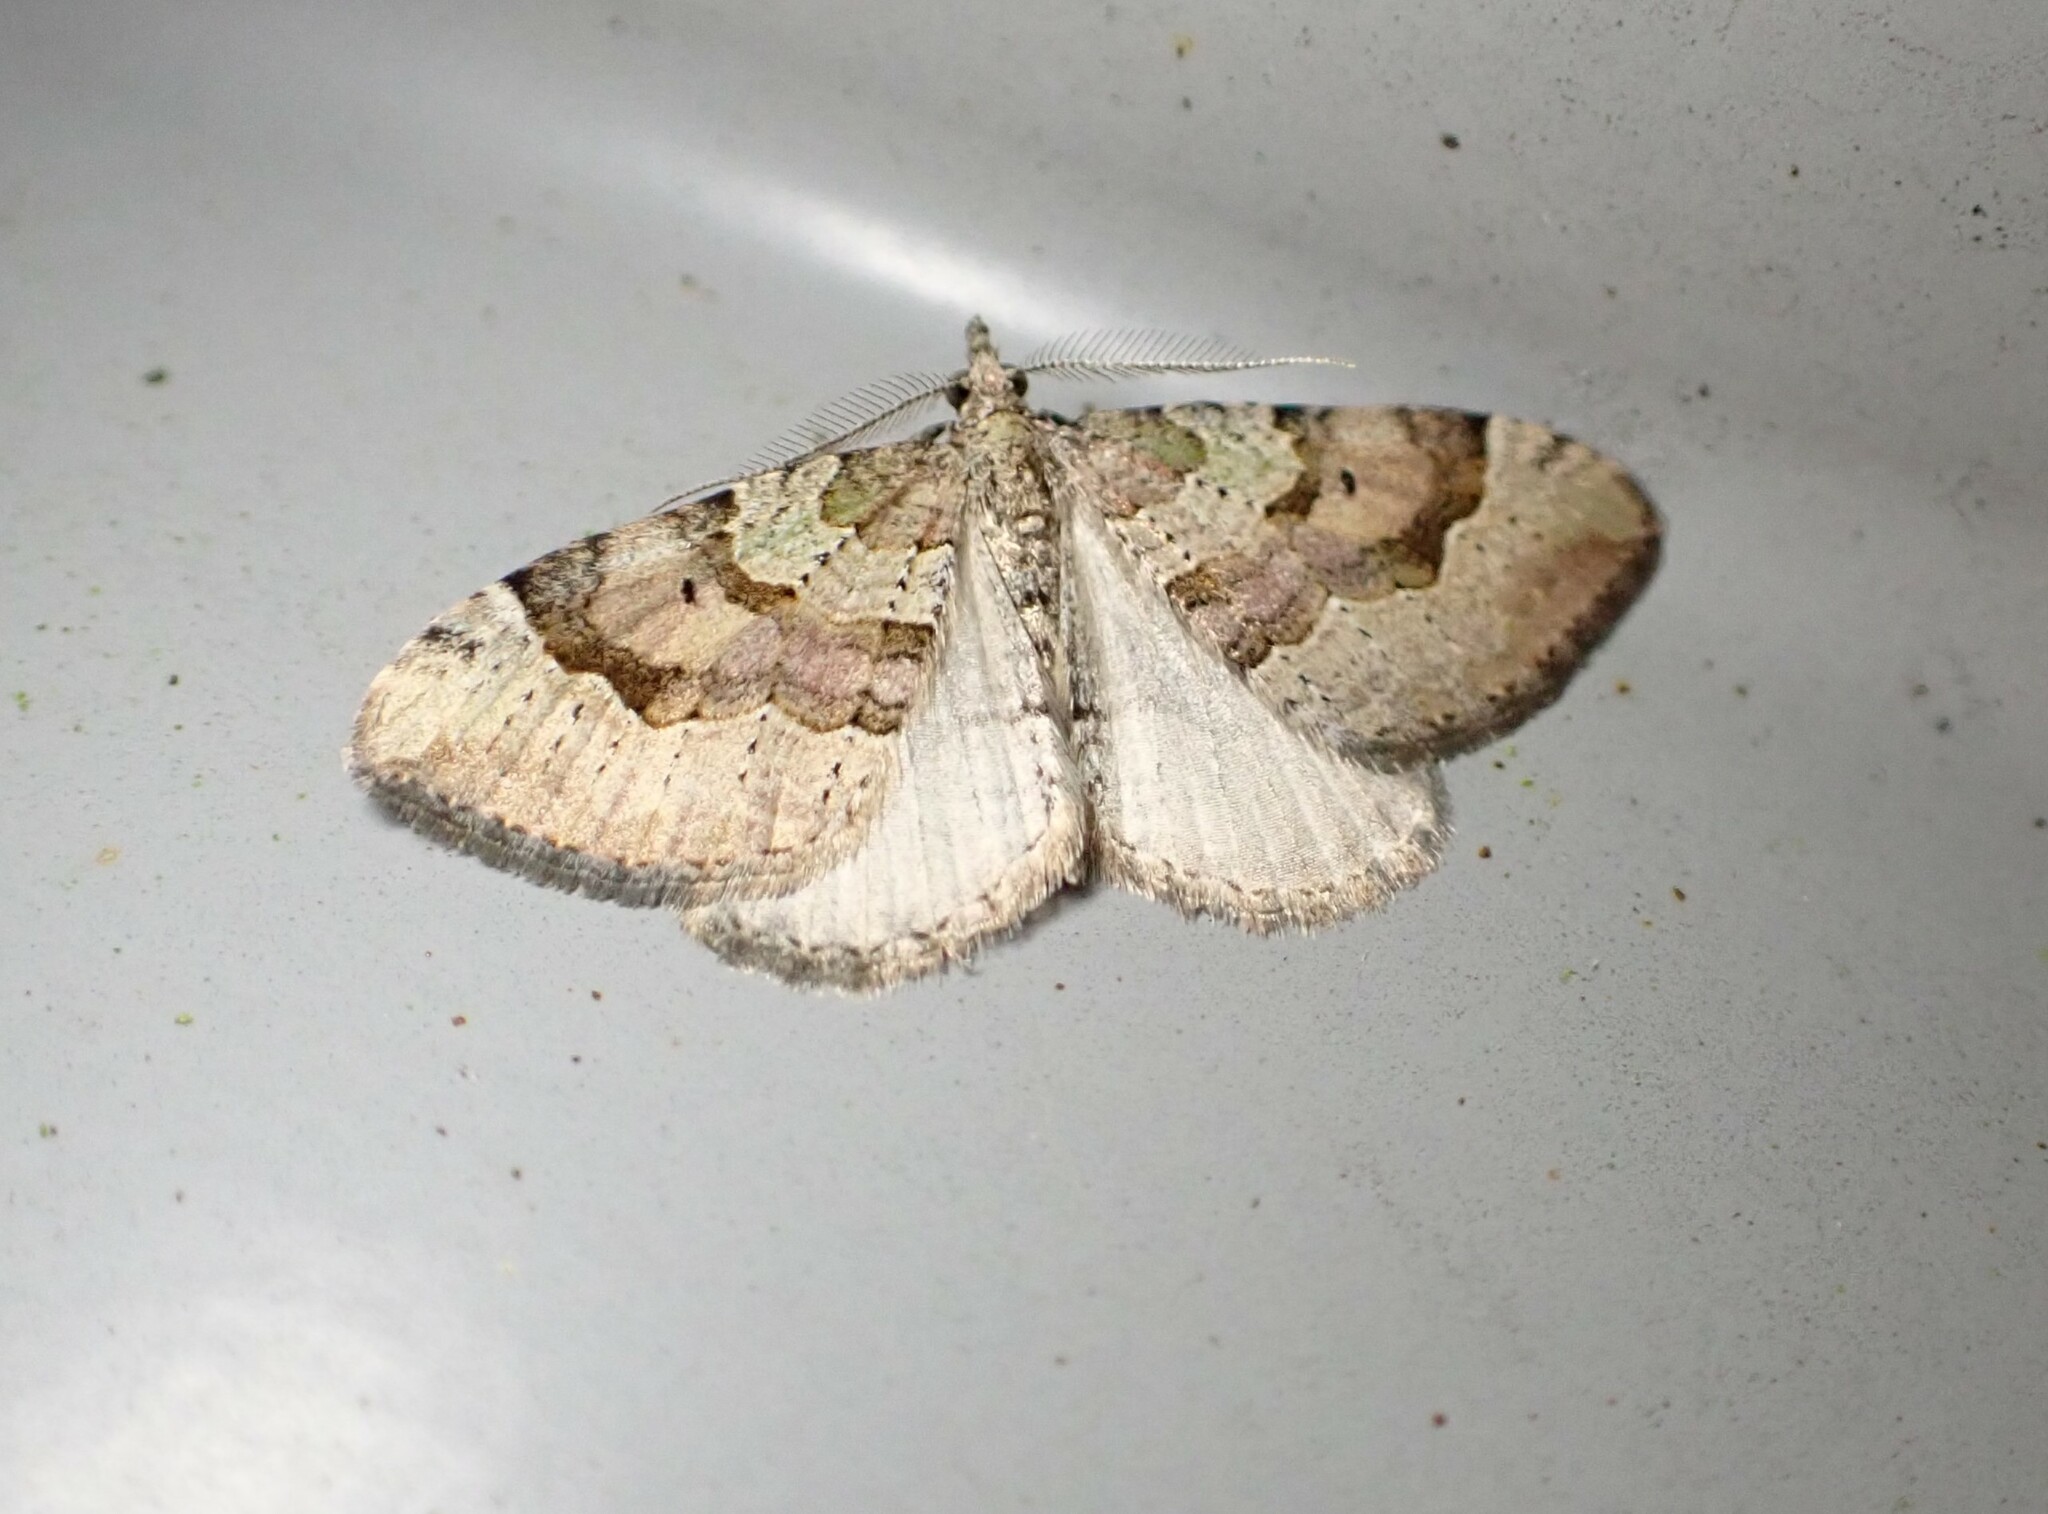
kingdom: Animalia
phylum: Arthropoda
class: Insecta
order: Lepidoptera
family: Geometridae
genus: Epyaxa
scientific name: Epyaxa rosearia
